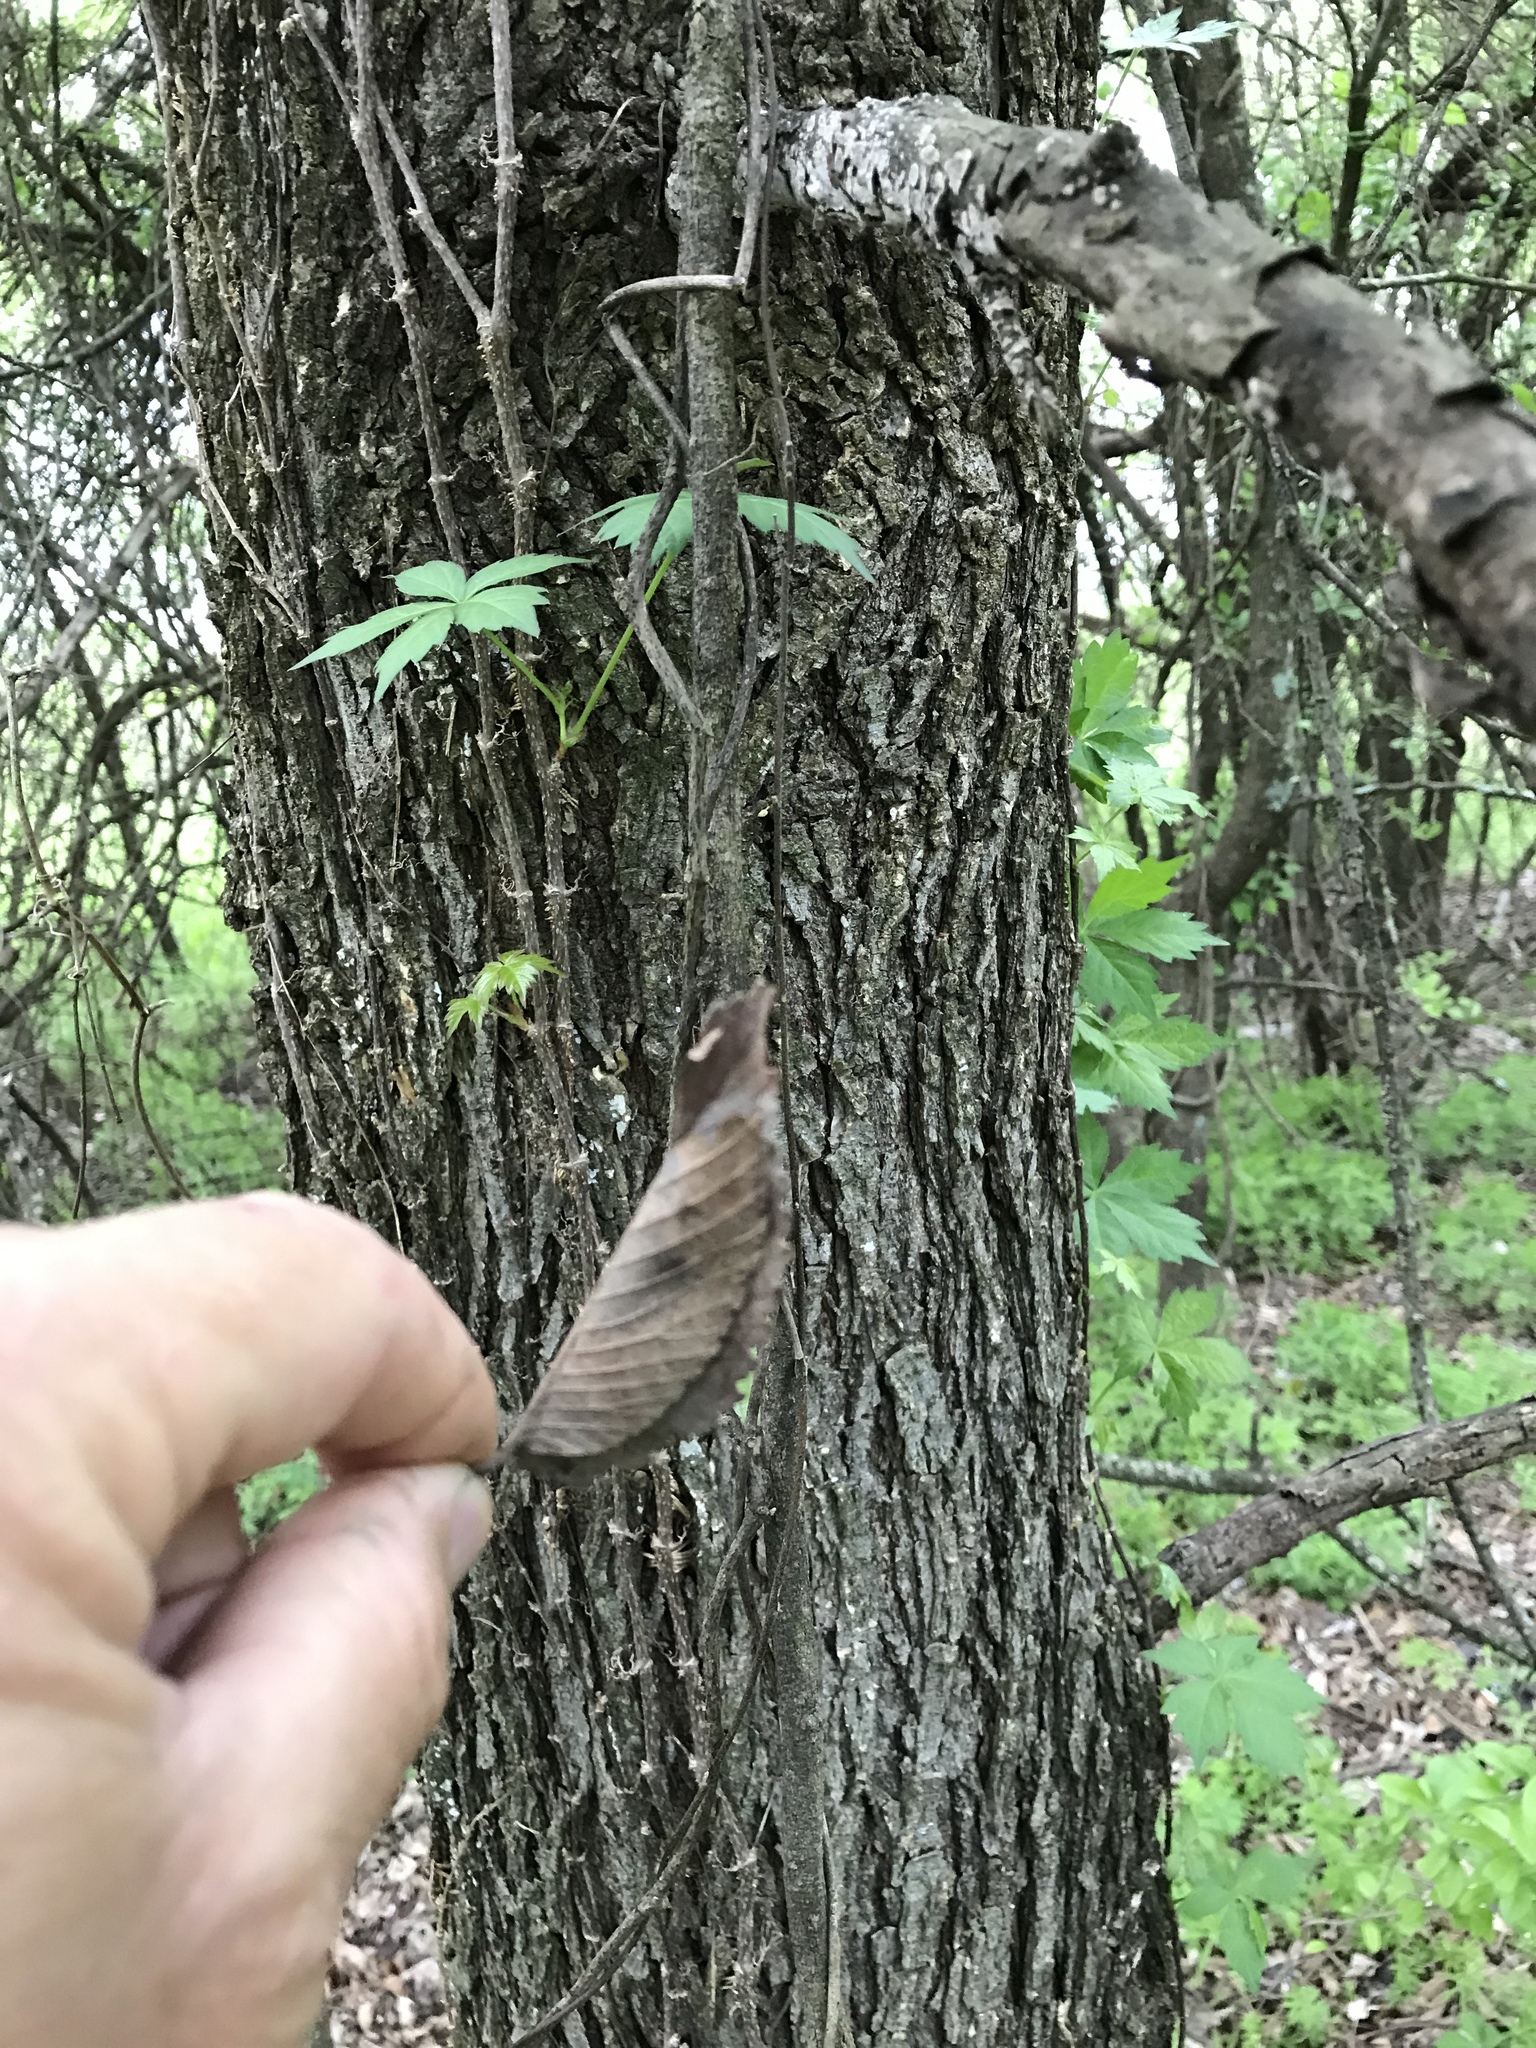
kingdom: Plantae
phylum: Tracheophyta
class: Magnoliopsida
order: Rosales
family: Ulmaceae
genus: Ulmus
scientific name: Ulmus americana
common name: American elm
